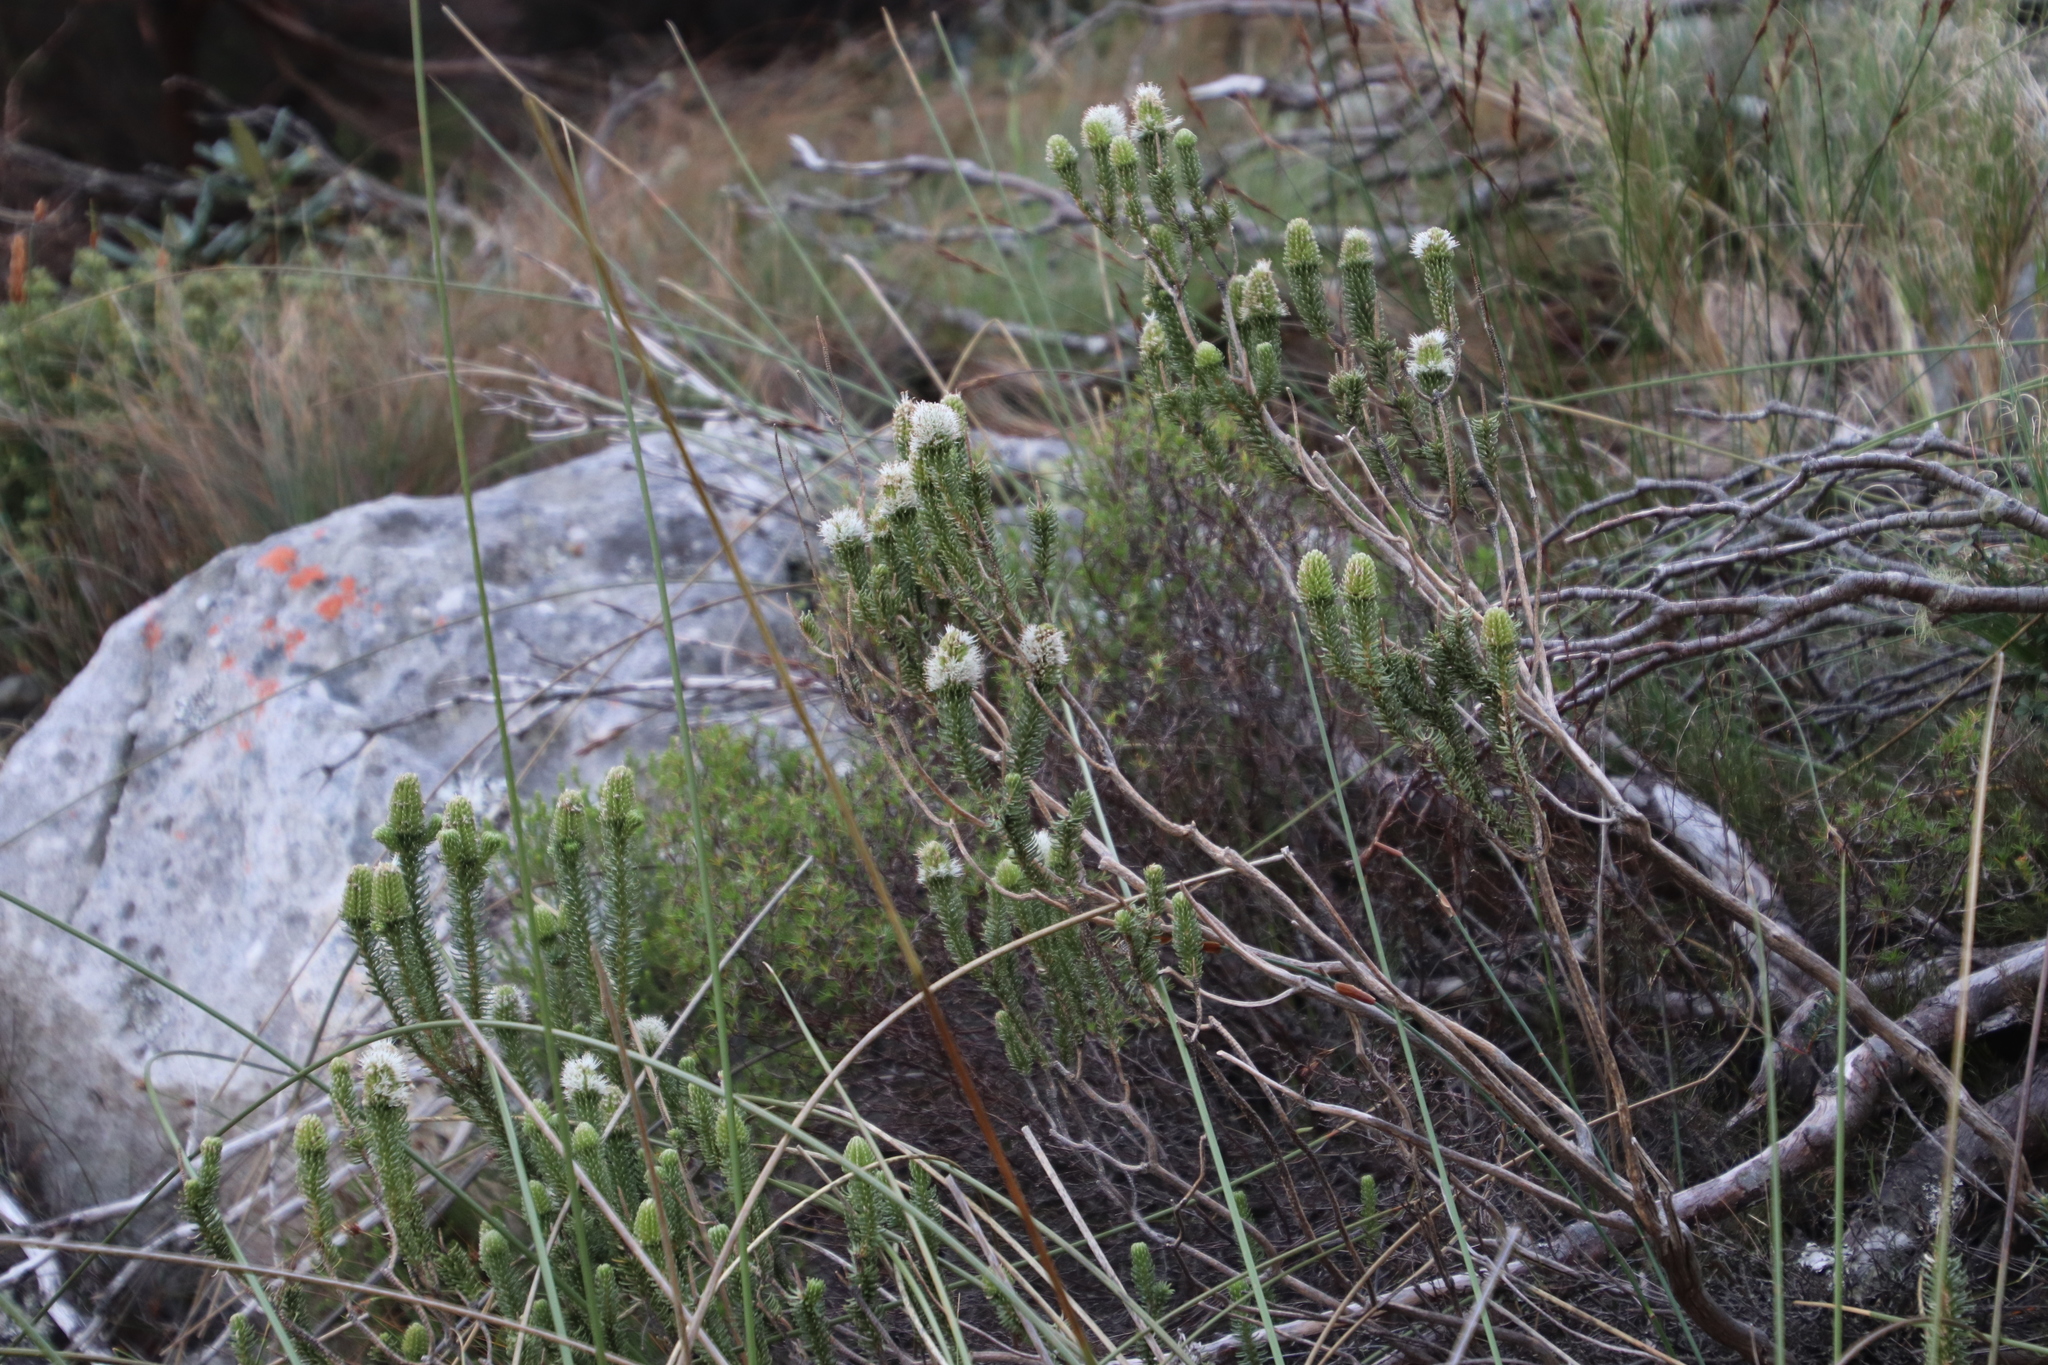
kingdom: Plantae
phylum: Tracheophyta
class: Magnoliopsida
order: Lamiales
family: Stilbaceae
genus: Stilbe
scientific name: Stilbe vestita
